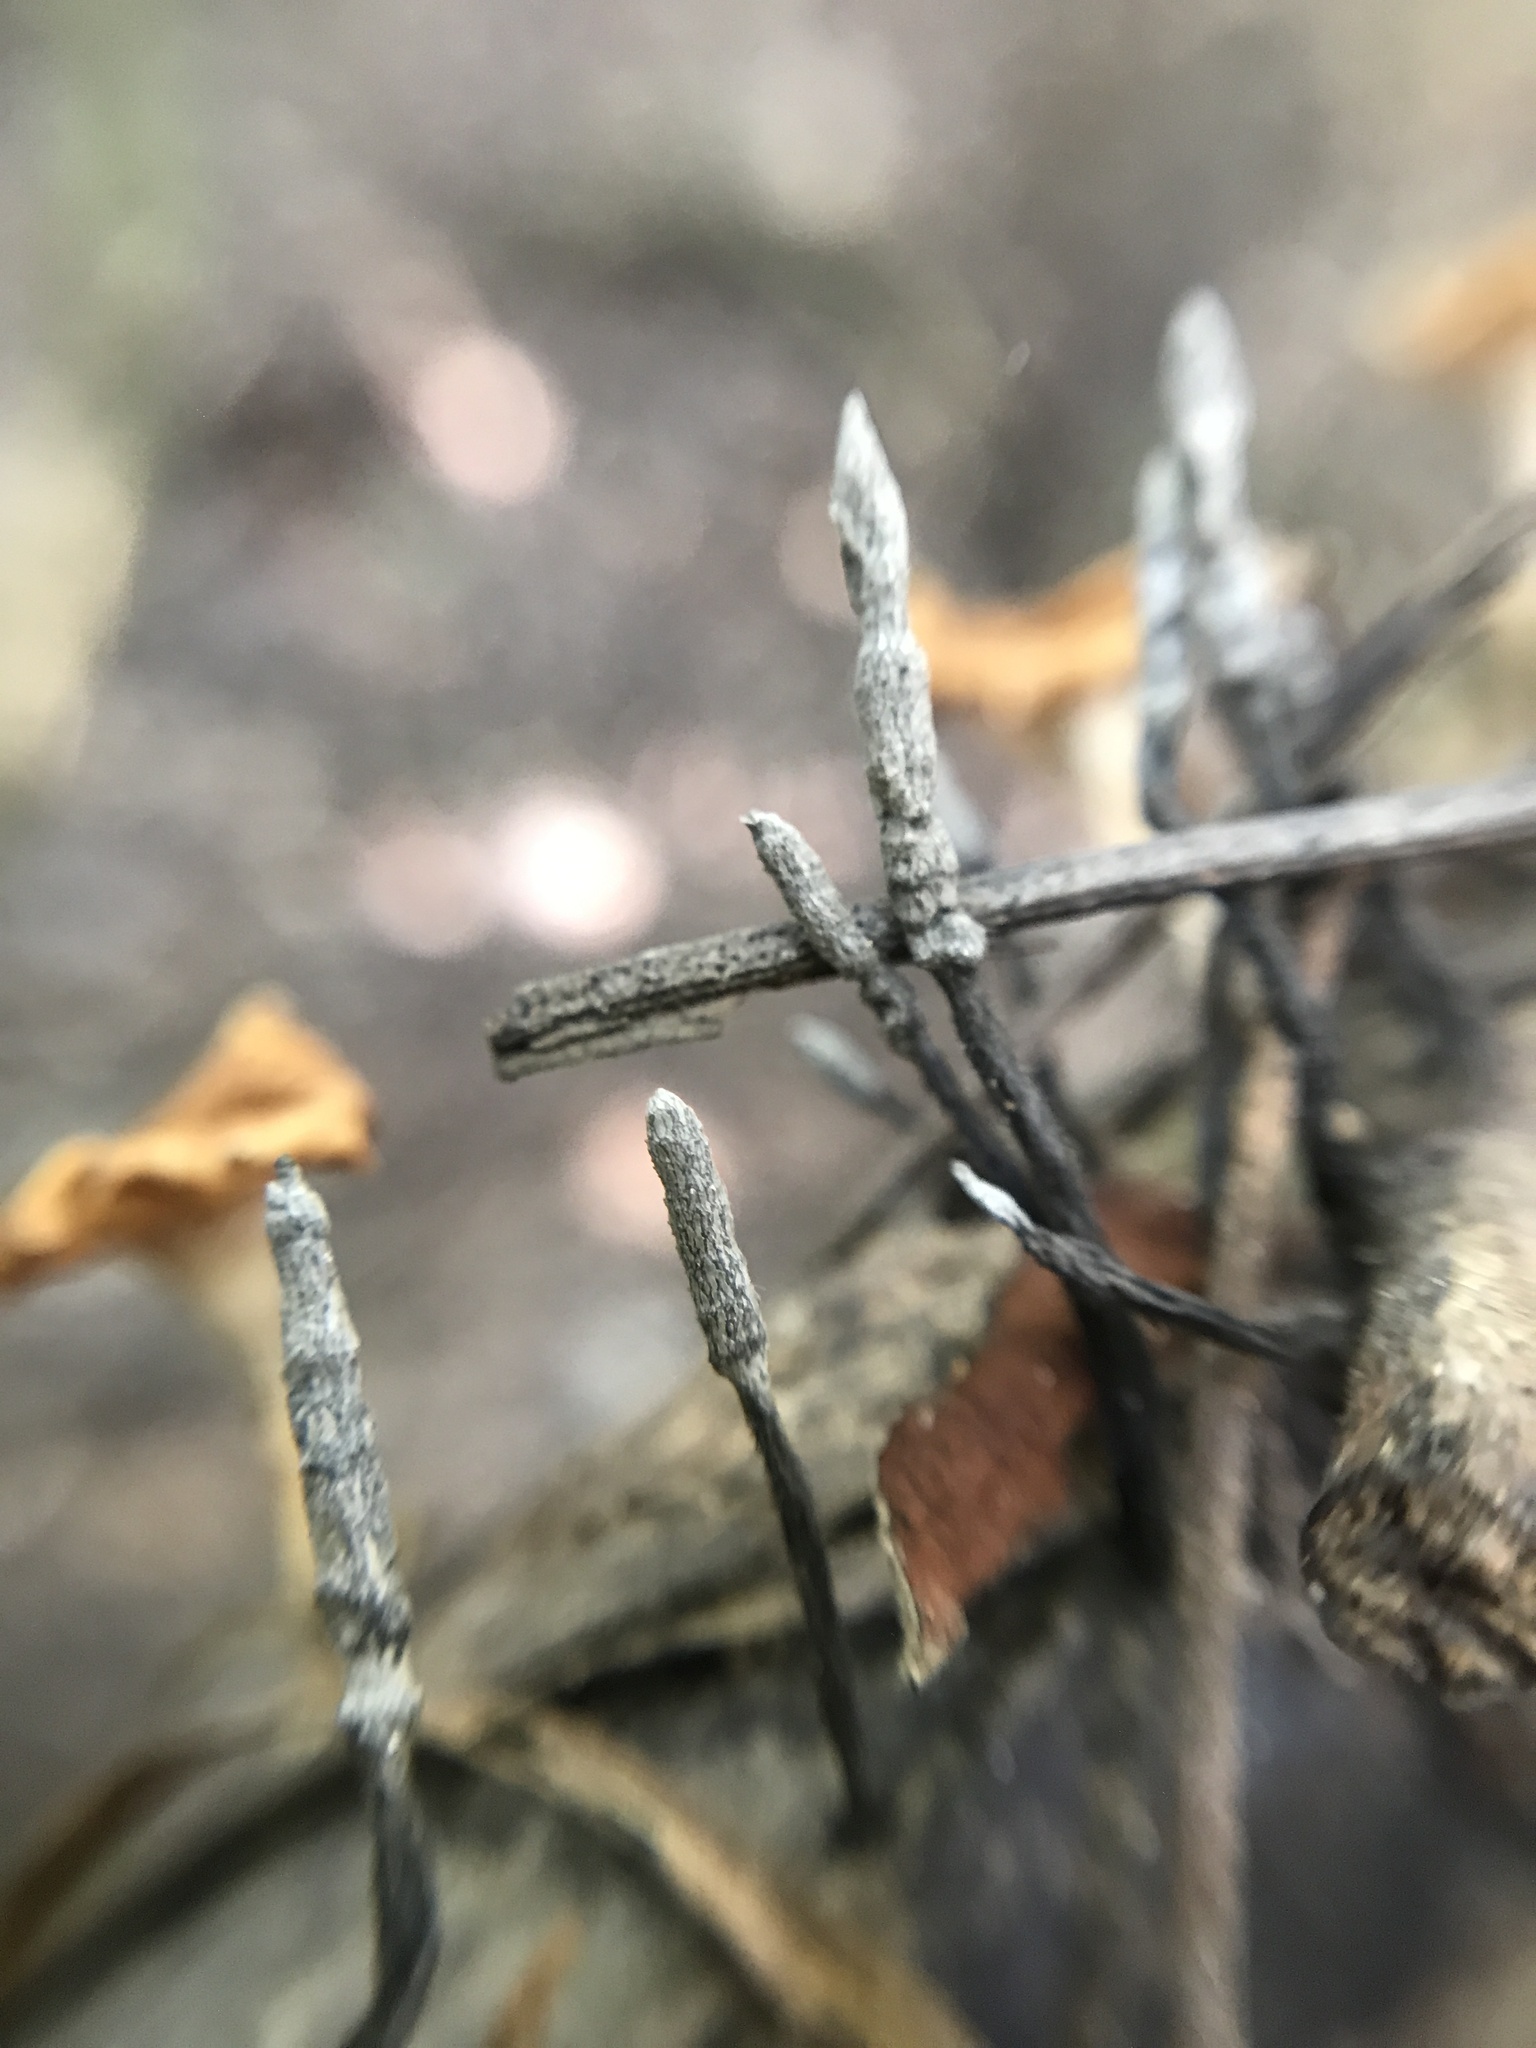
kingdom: Fungi
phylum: Ascomycota
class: Sordariomycetes
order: Xylariales
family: Xylariaceae
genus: Xylaria
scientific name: Xylaria filiformis
